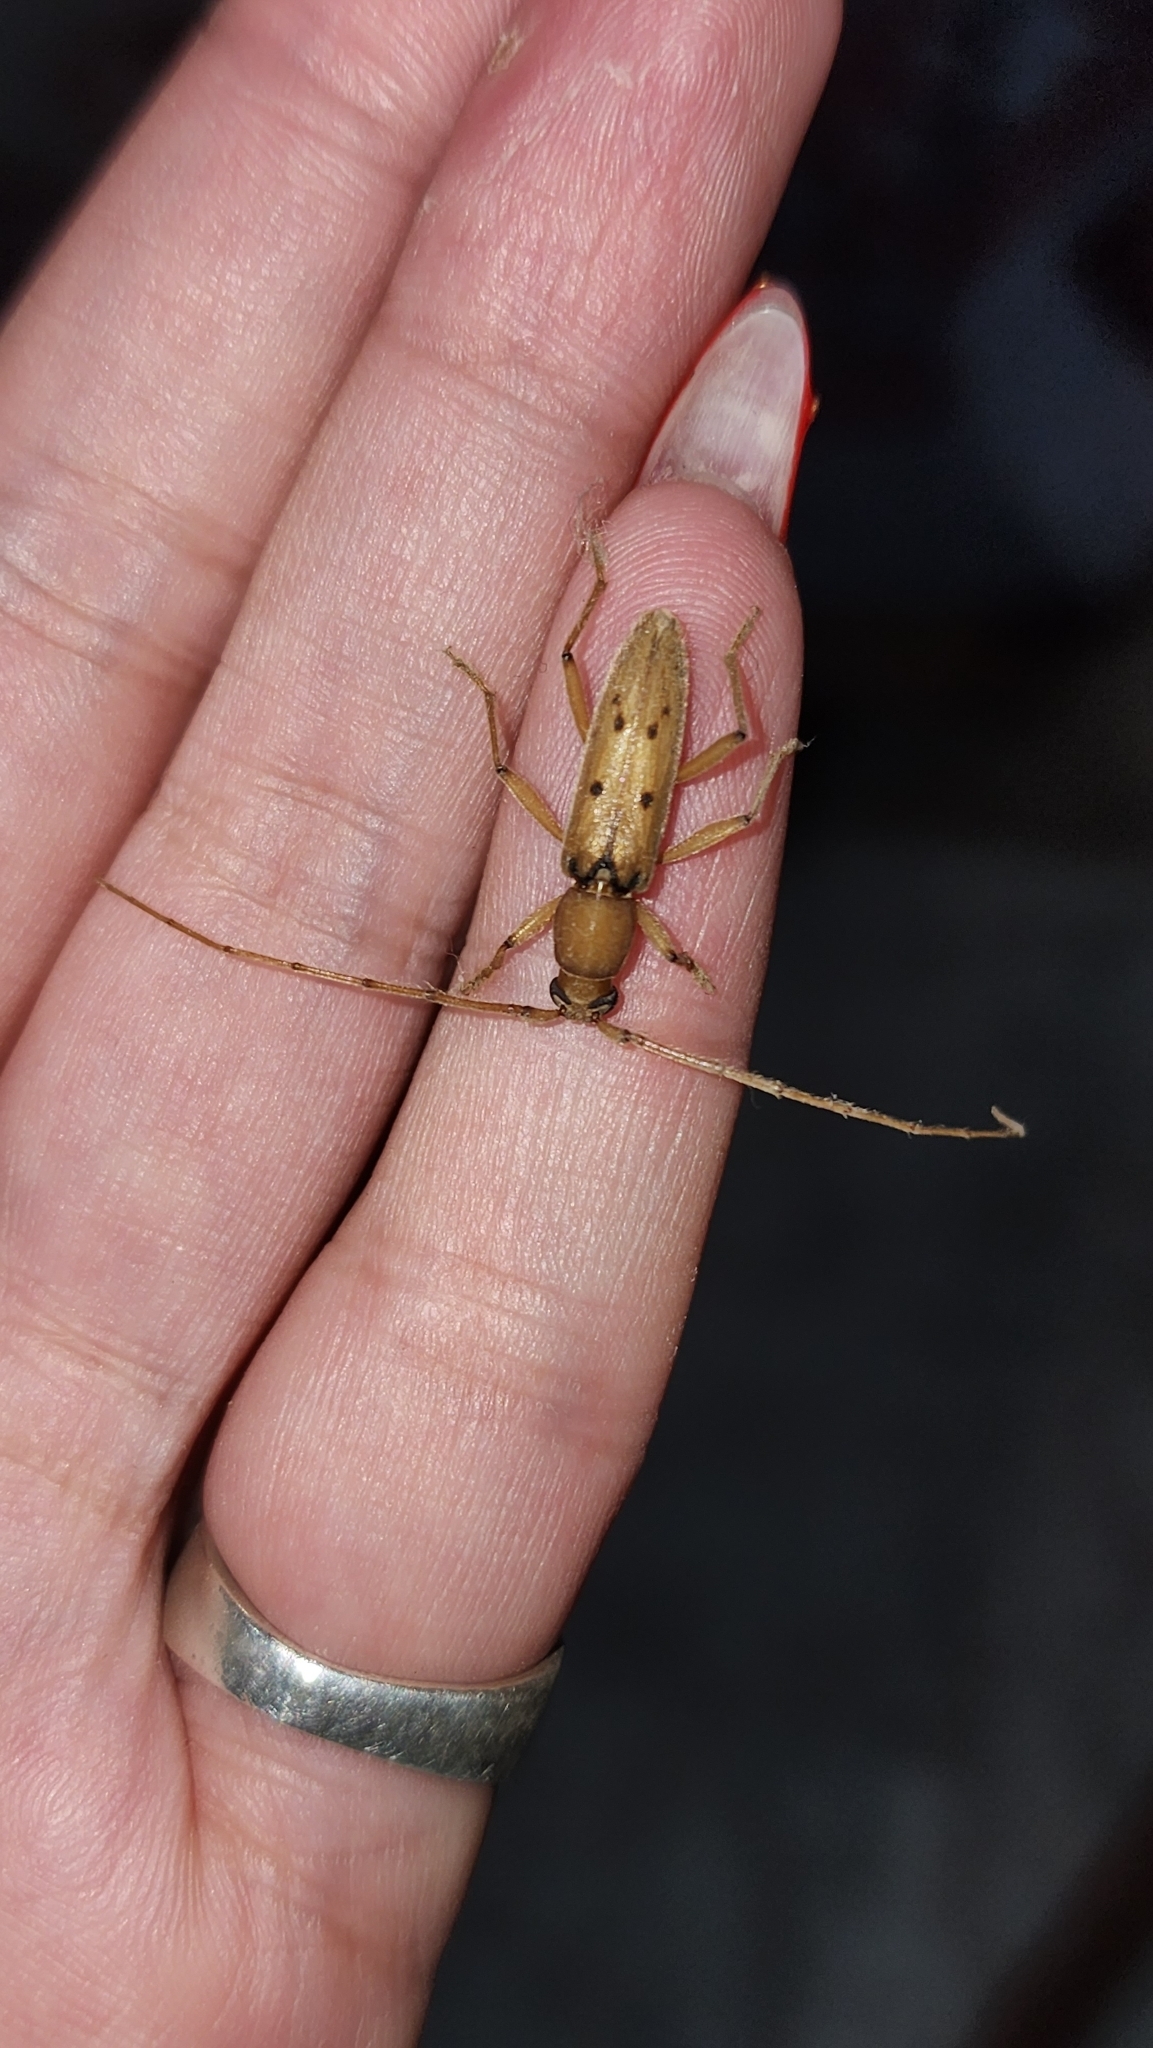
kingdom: Animalia
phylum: Arthropoda
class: Insecta
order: Coleoptera
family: Cerambycidae
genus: Achryson
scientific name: Achryson surinamum
